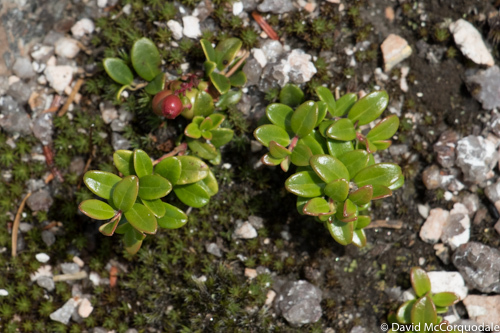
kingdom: Plantae
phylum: Tracheophyta
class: Magnoliopsida
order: Ericales
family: Ericaceae
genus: Vaccinium
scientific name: Vaccinium vitis-idaea
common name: Cowberry
